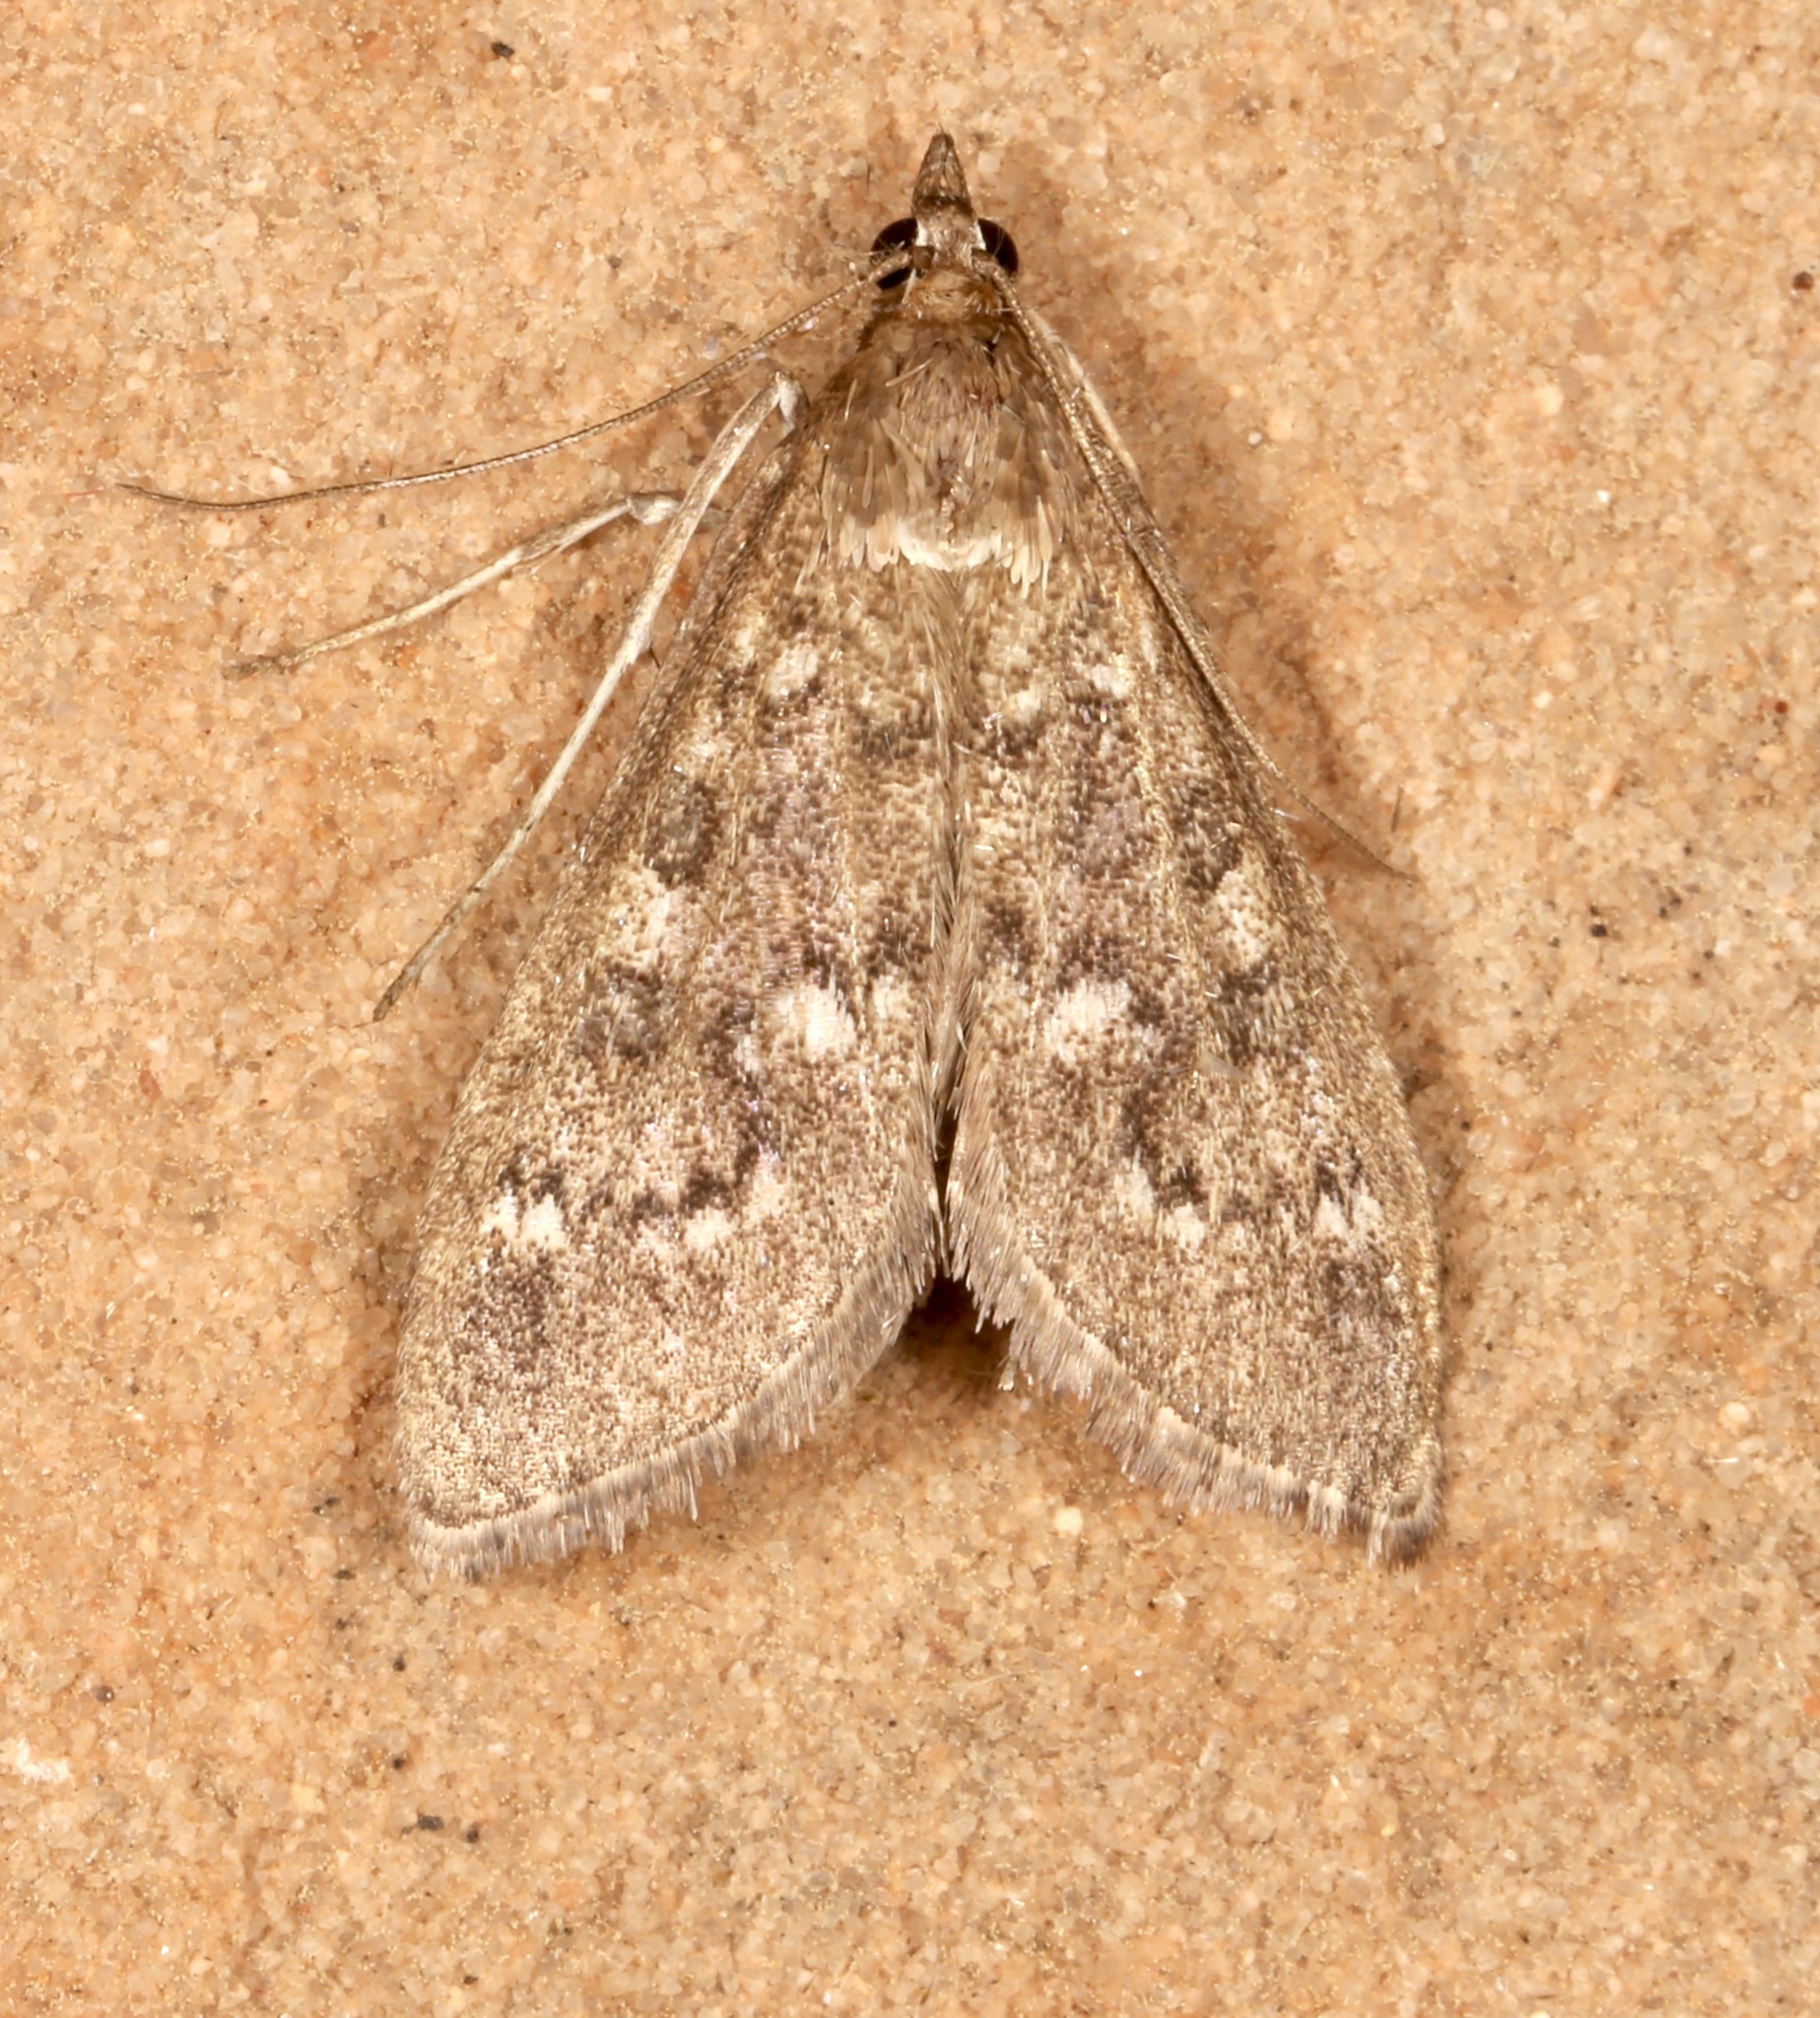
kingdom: Animalia
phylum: Arthropoda
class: Insecta
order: Lepidoptera
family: Crambidae
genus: Mecyna
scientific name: Mecyna mustelinalis
